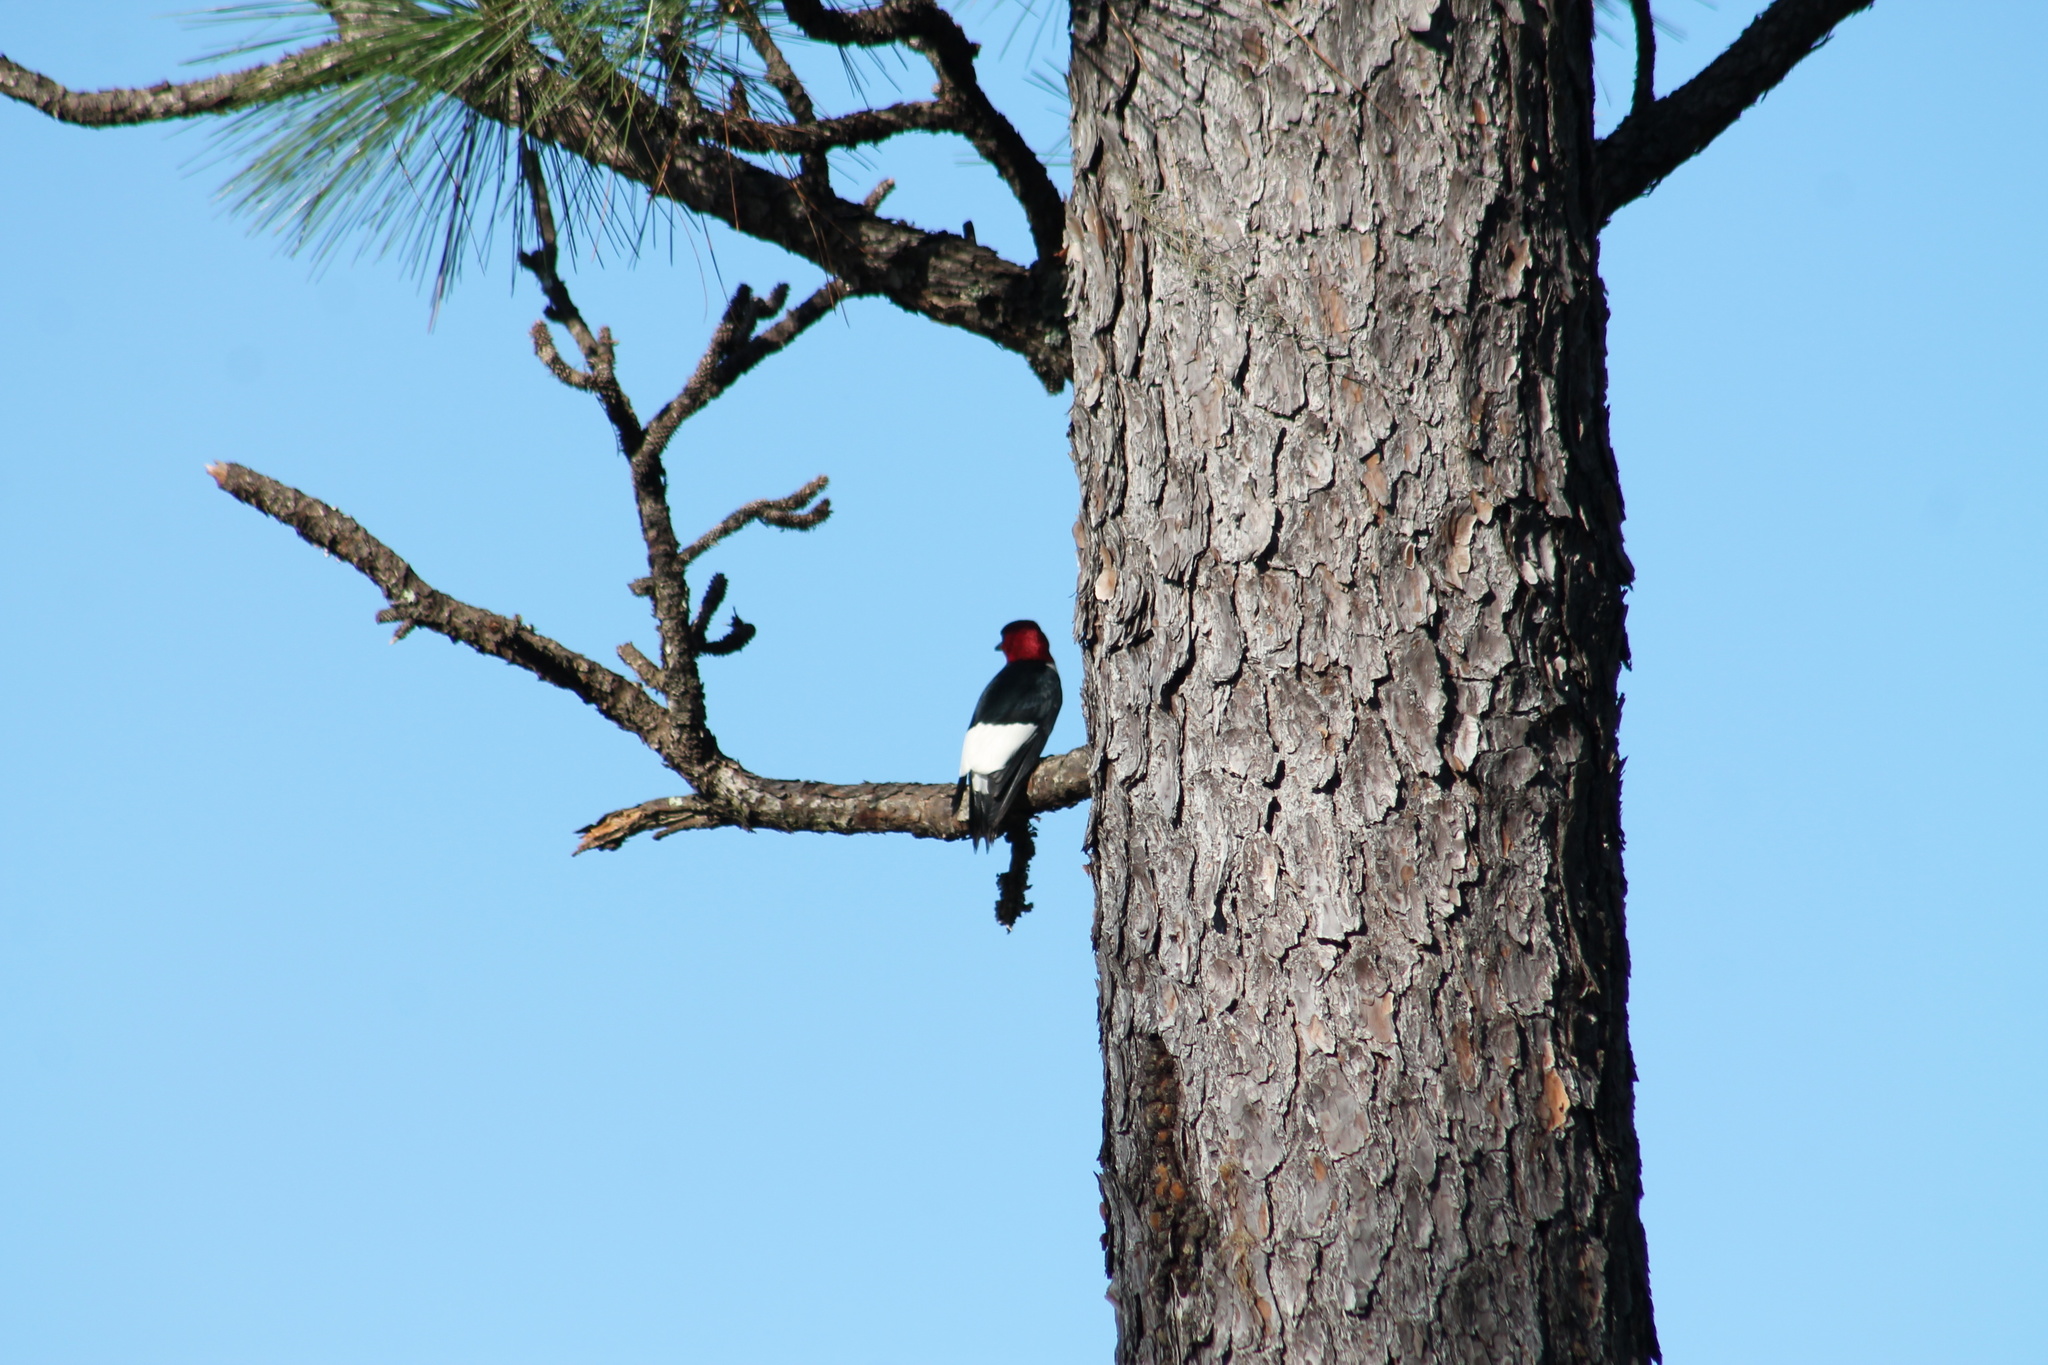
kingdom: Animalia
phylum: Chordata
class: Aves
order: Piciformes
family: Picidae
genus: Melanerpes
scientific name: Melanerpes erythrocephalus
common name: Red-headed woodpecker
